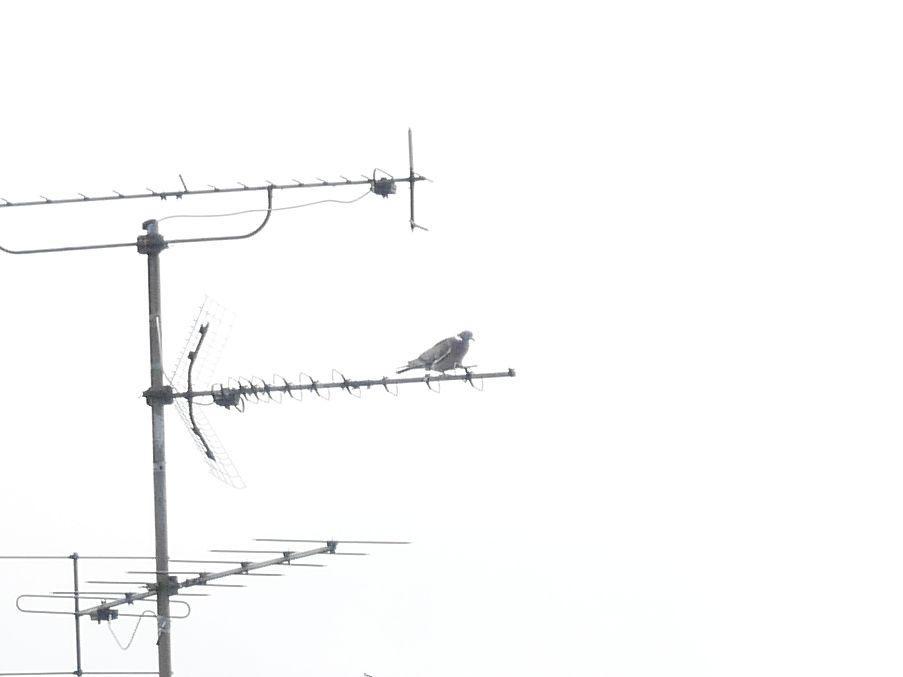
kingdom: Animalia
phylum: Chordata
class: Aves
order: Columbiformes
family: Columbidae
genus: Columba
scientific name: Columba palumbus
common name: Common wood pigeon
